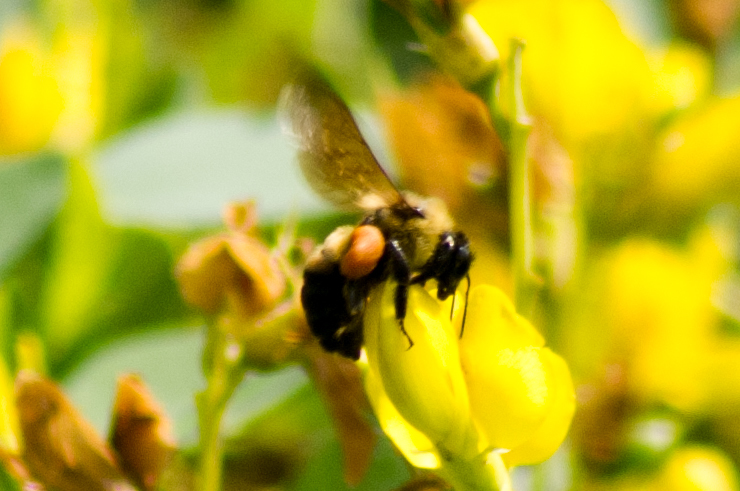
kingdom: Animalia
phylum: Arthropoda
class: Insecta
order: Hymenoptera
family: Apidae
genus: Bombus
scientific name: Bombus griseocollis
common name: Brown-belted bumble bee
